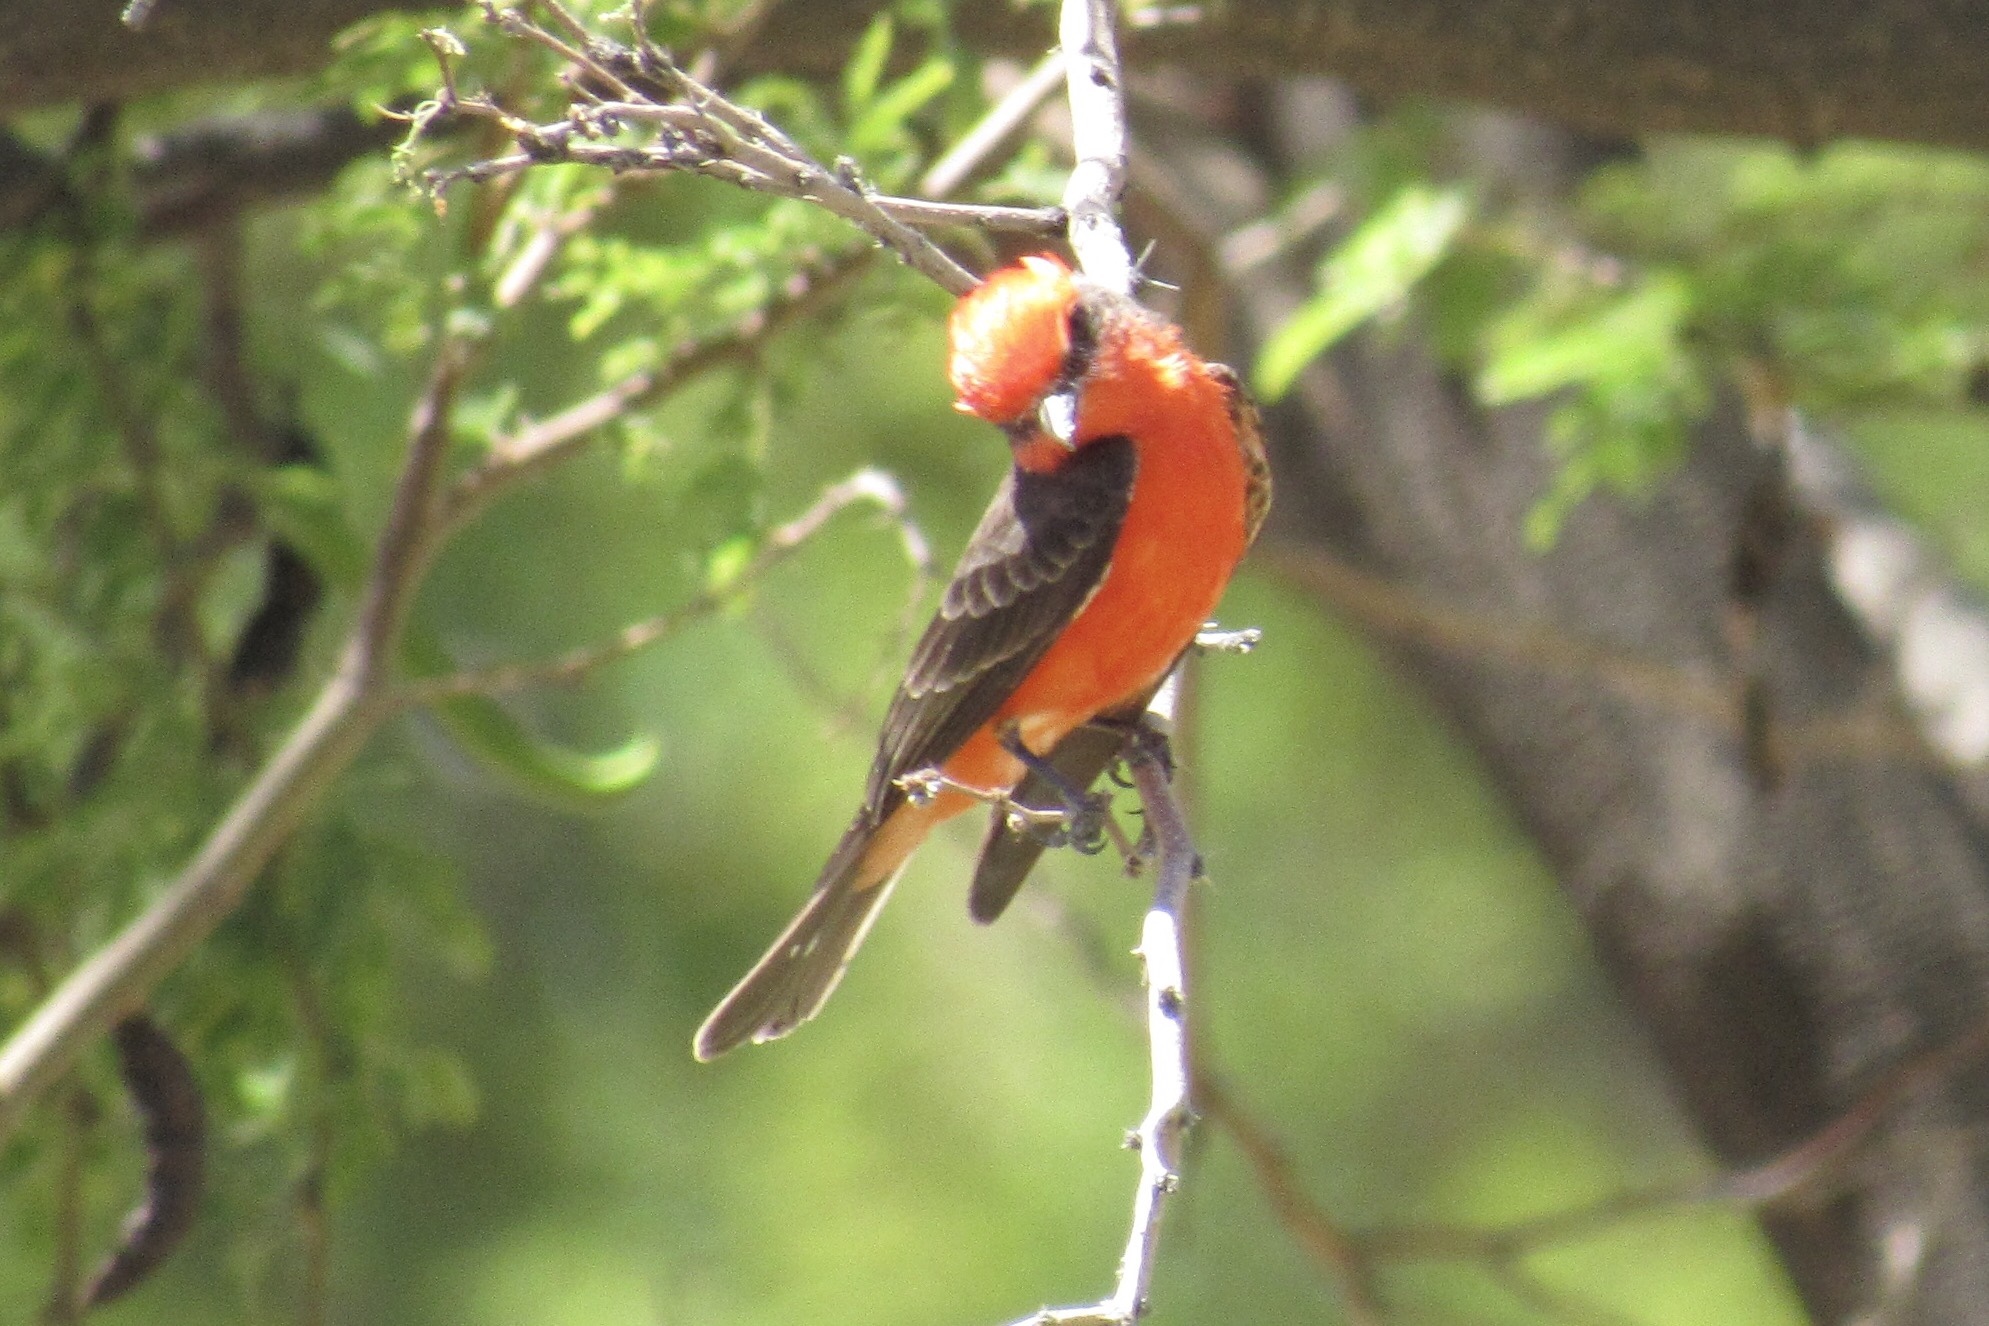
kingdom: Animalia
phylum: Chordata
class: Aves
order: Passeriformes
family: Tyrannidae
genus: Pyrocephalus
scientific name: Pyrocephalus rubinus
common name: Vermilion flycatcher
